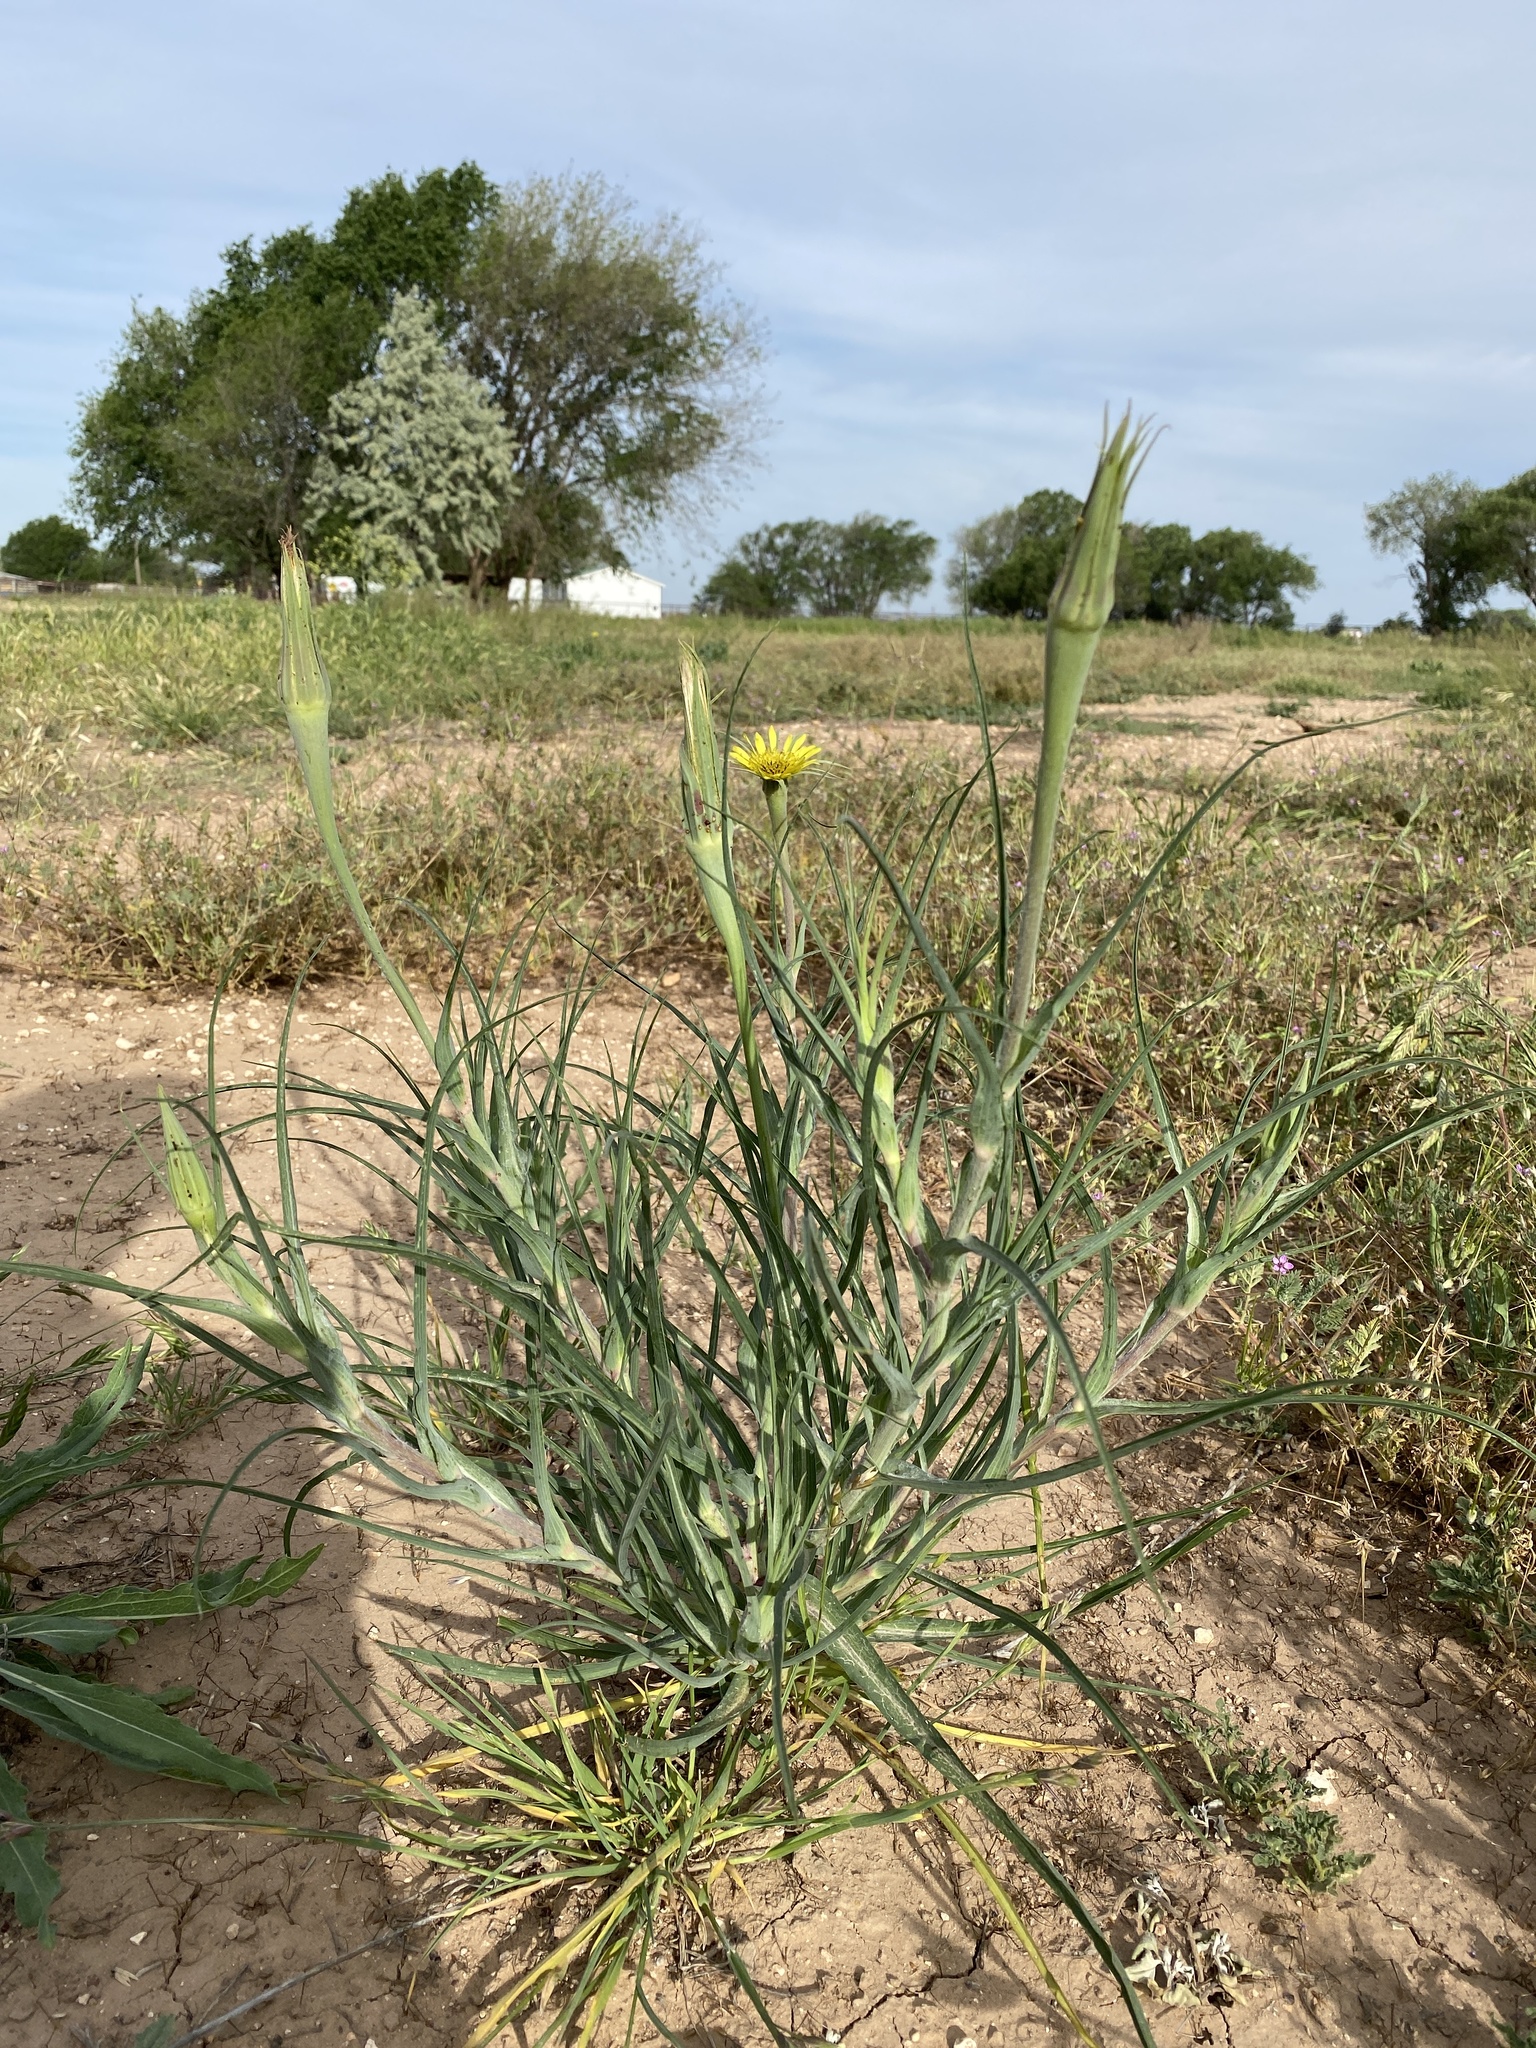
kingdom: Plantae
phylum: Tracheophyta
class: Magnoliopsida
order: Asterales
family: Asteraceae
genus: Tragopogon
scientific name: Tragopogon dubius
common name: Yellow salsify
